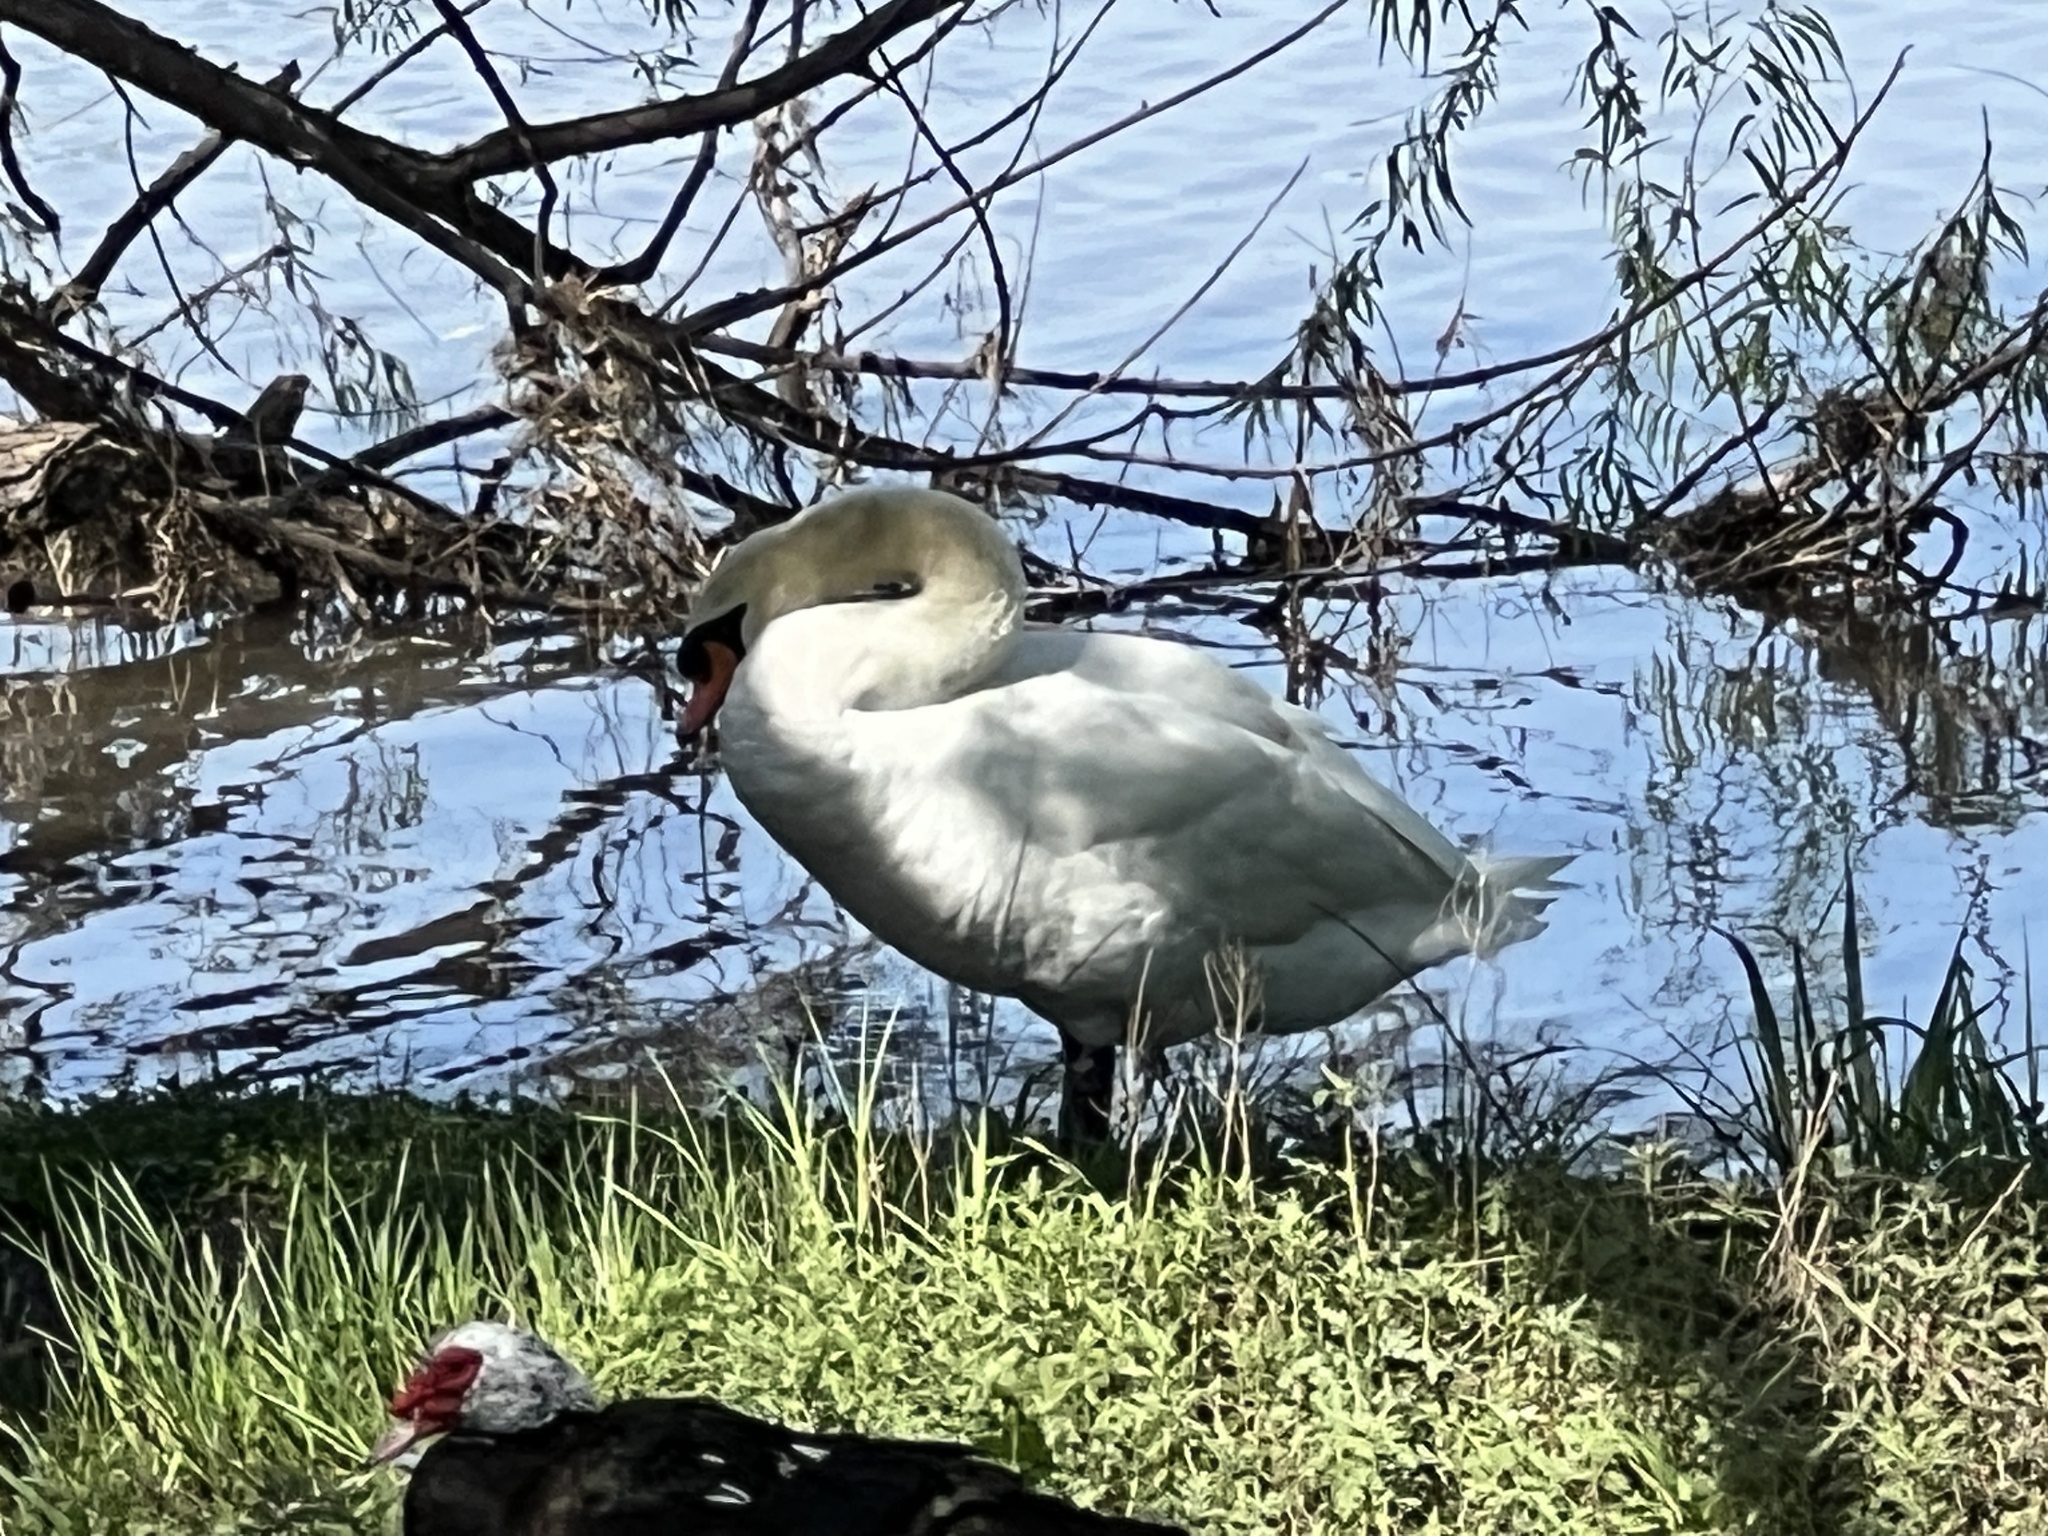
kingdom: Animalia
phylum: Chordata
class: Aves
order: Anseriformes
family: Anatidae
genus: Cygnus
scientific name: Cygnus olor
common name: Mute swan
